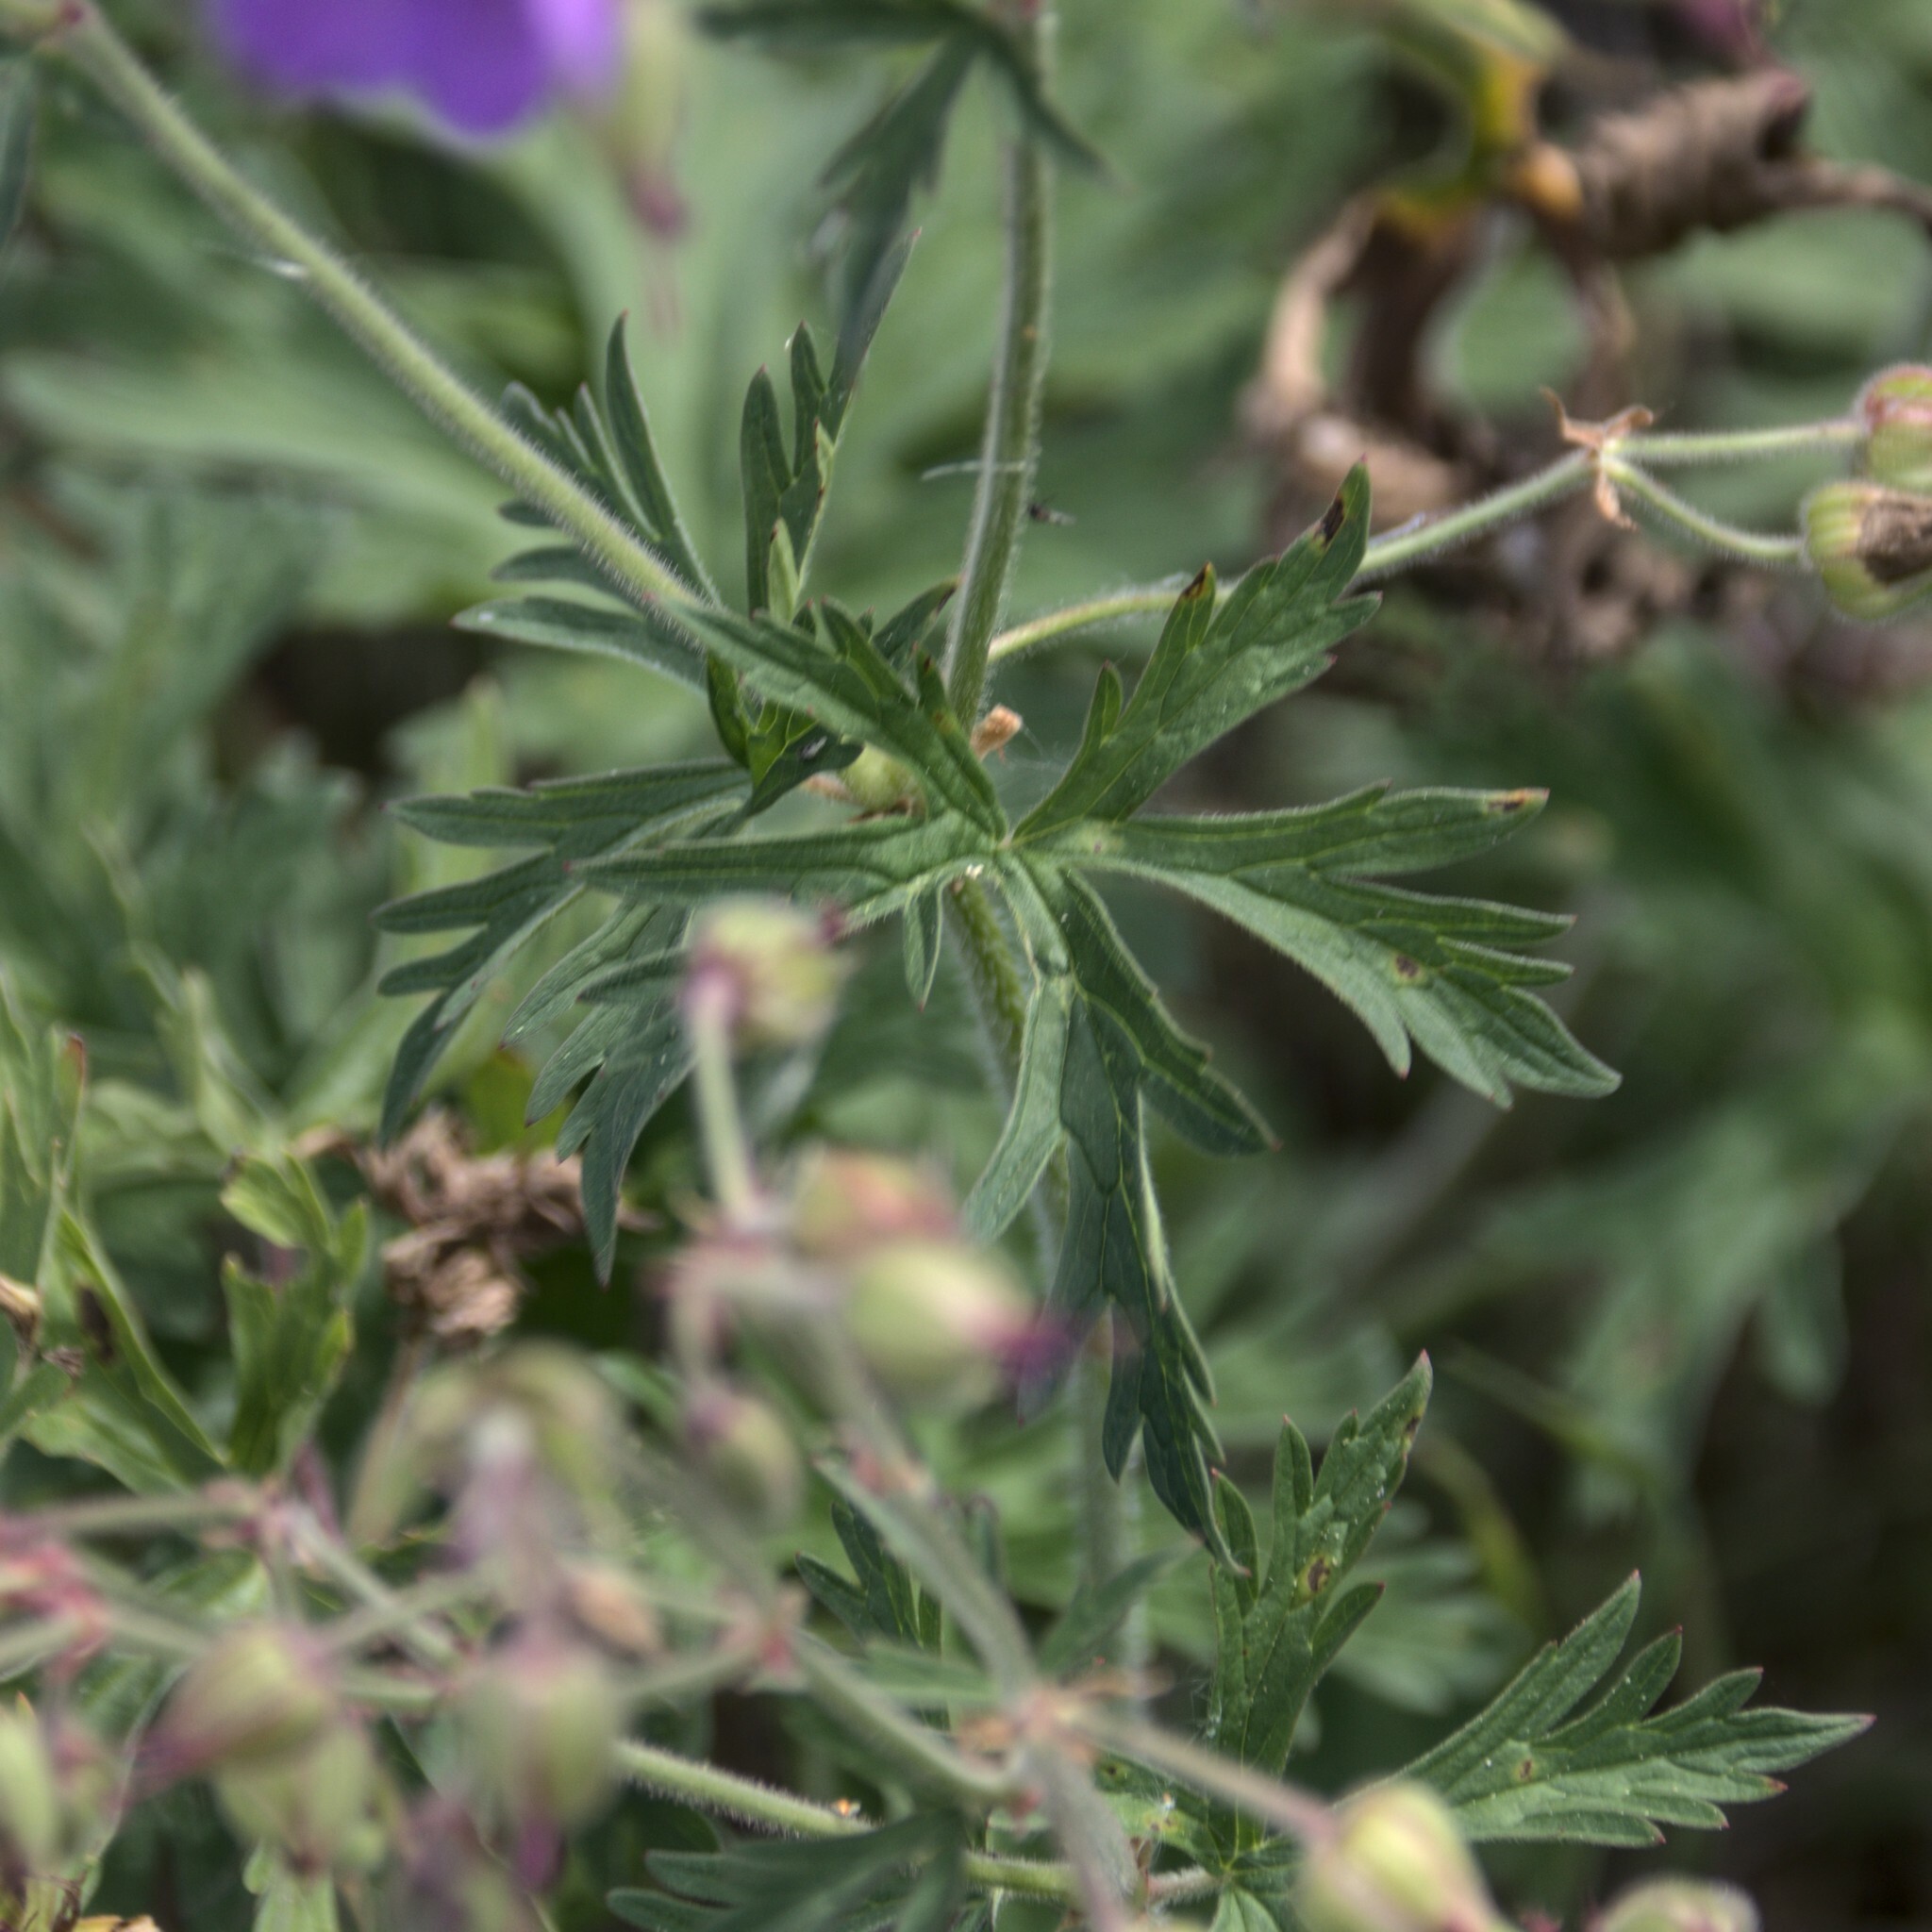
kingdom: Plantae
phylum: Tracheophyta
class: Magnoliopsida
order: Geraniales
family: Geraniaceae
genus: Geranium
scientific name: Geranium pratense
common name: Meadow crane's-bill
